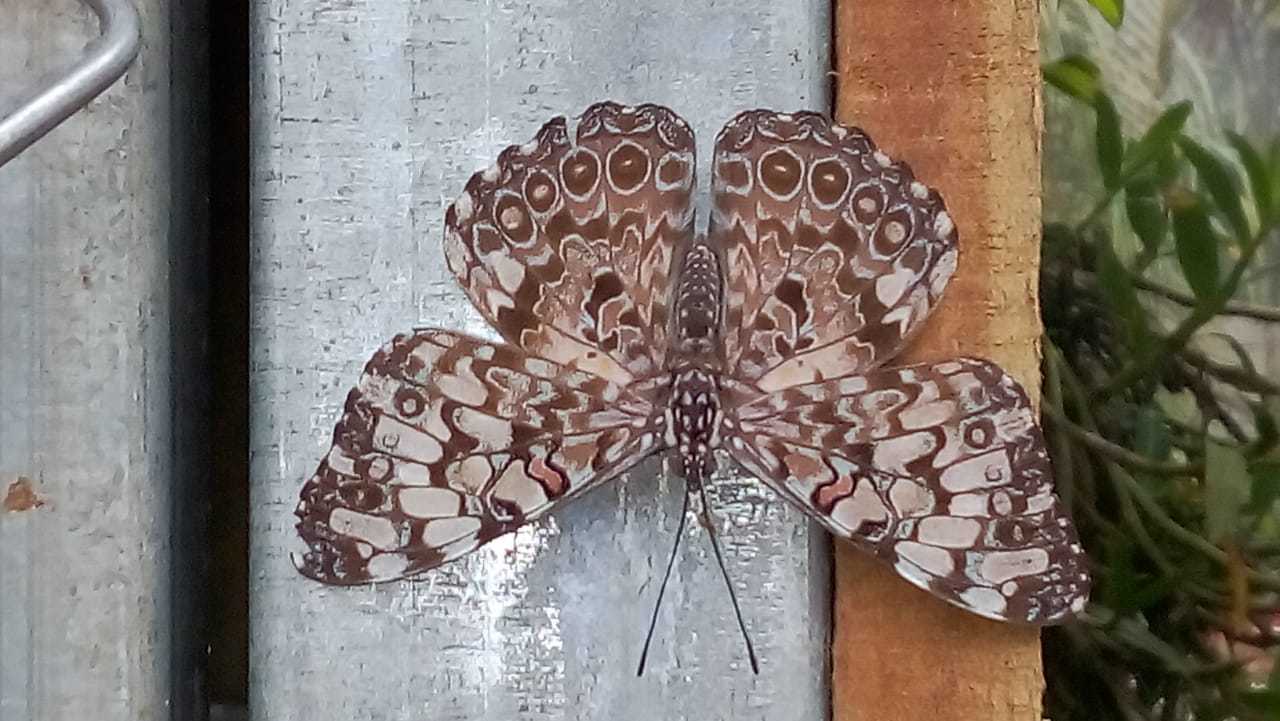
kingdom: Animalia
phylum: Arthropoda
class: Insecta
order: Lepidoptera
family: Nymphalidae
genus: Hamadryas
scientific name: Hamadryas feronia
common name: Variable cracker
